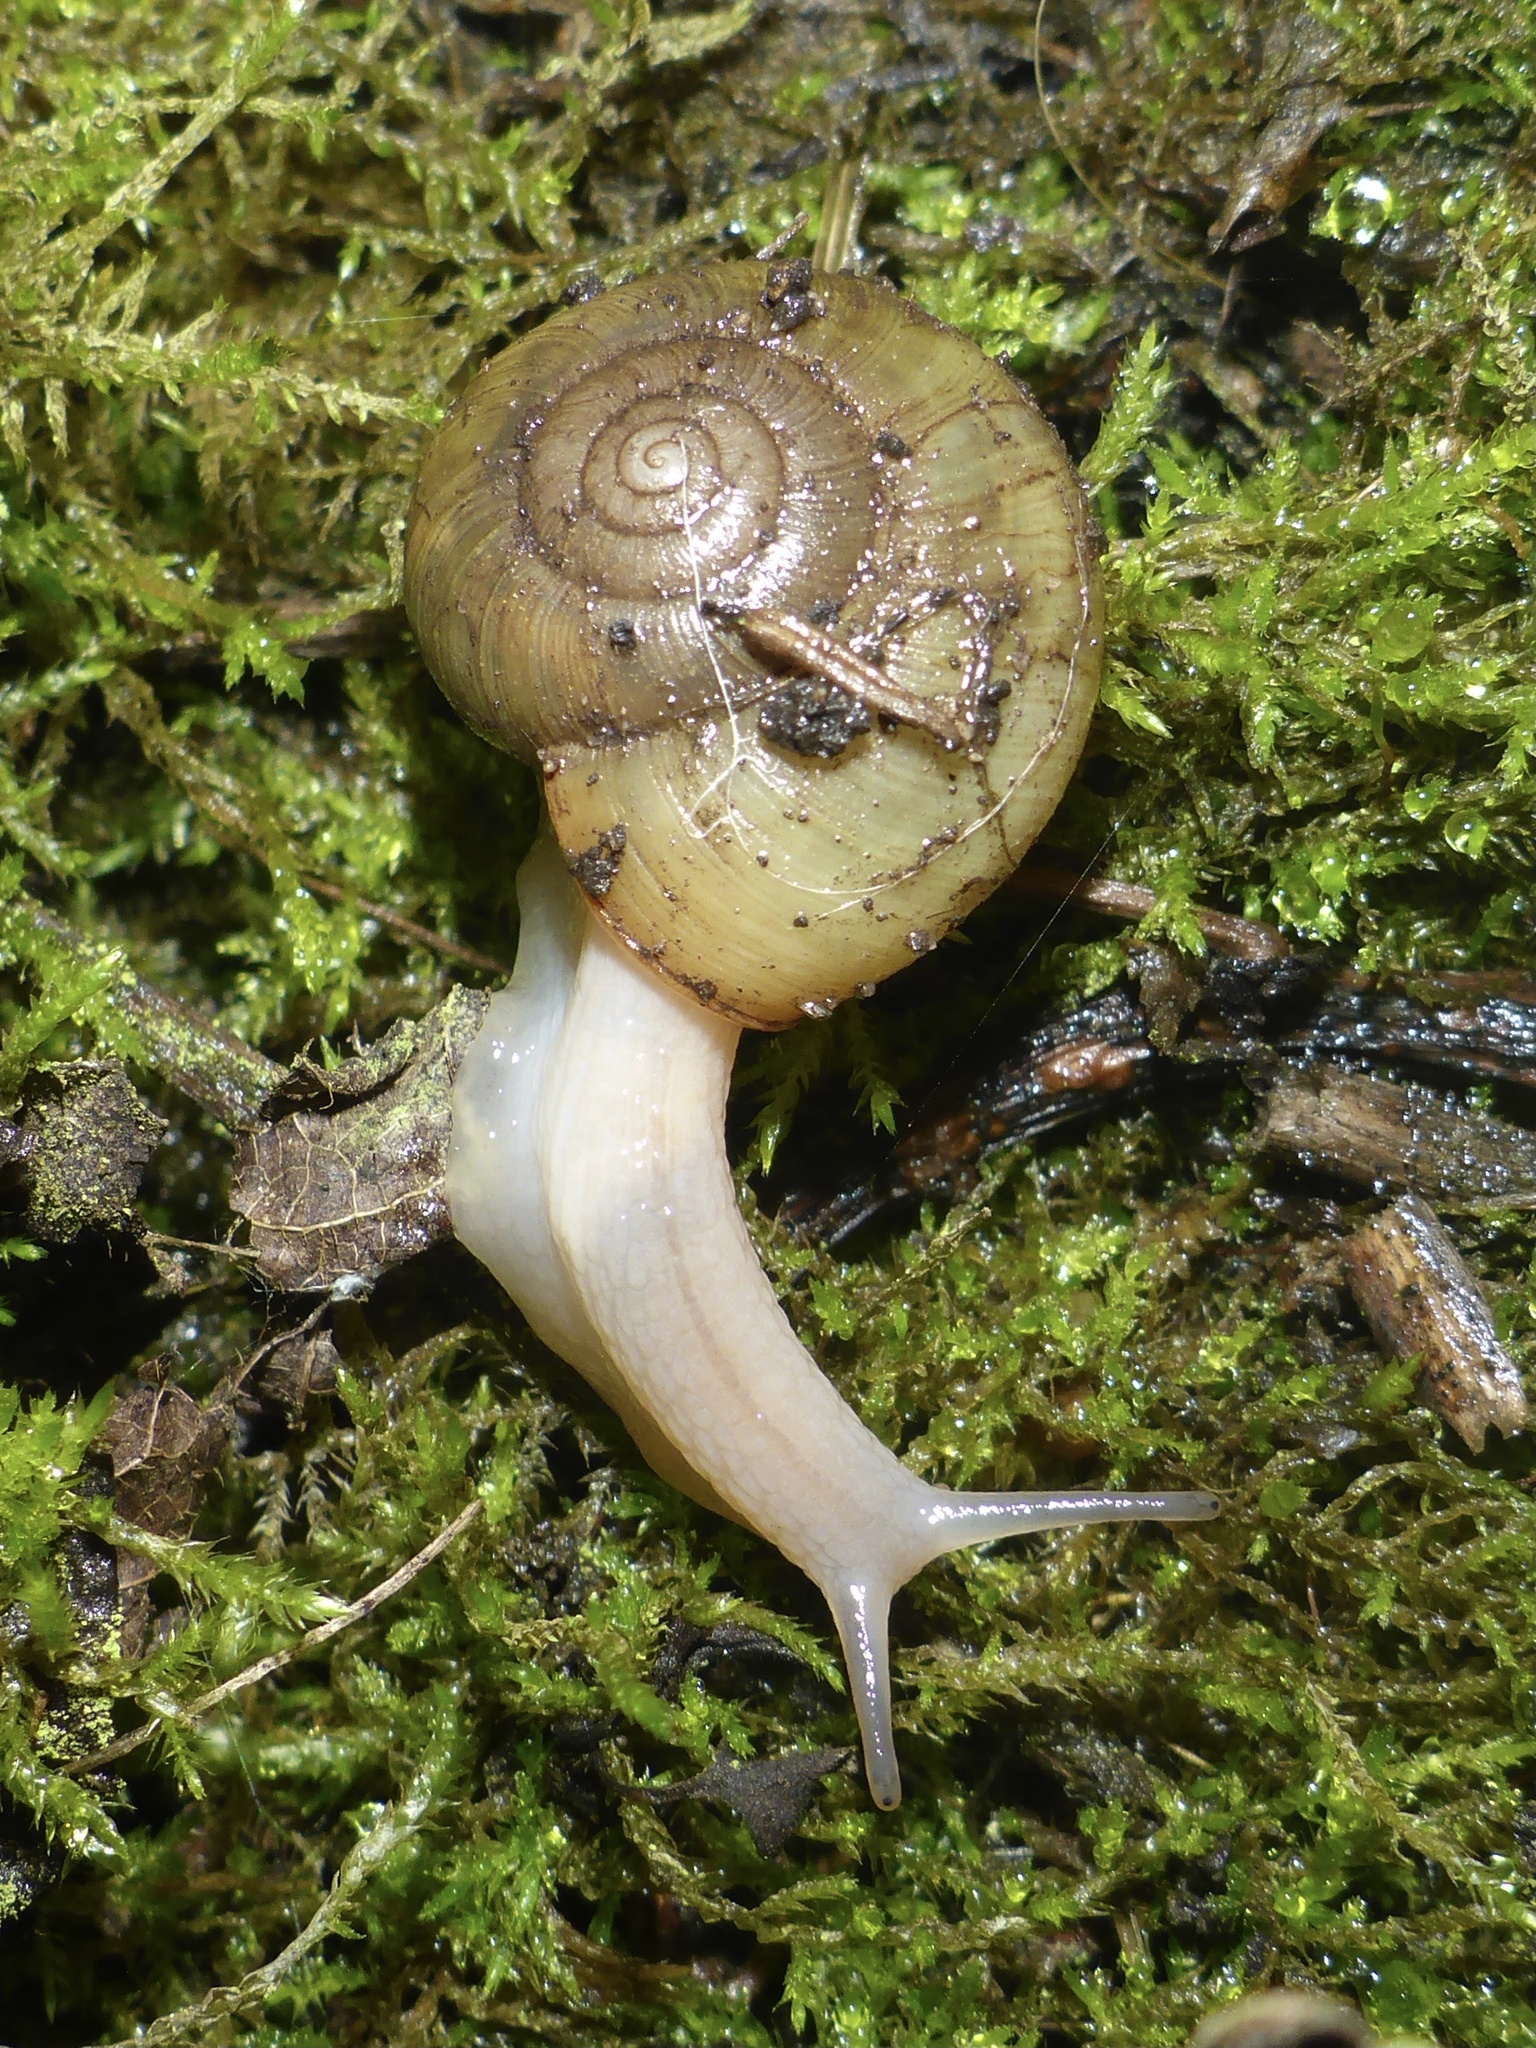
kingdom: Animalia
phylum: Mollusca
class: Gastropoda
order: Stylommatophora
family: Haplotrematidae
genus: Haplotrema
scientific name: Haplotrema minimum
